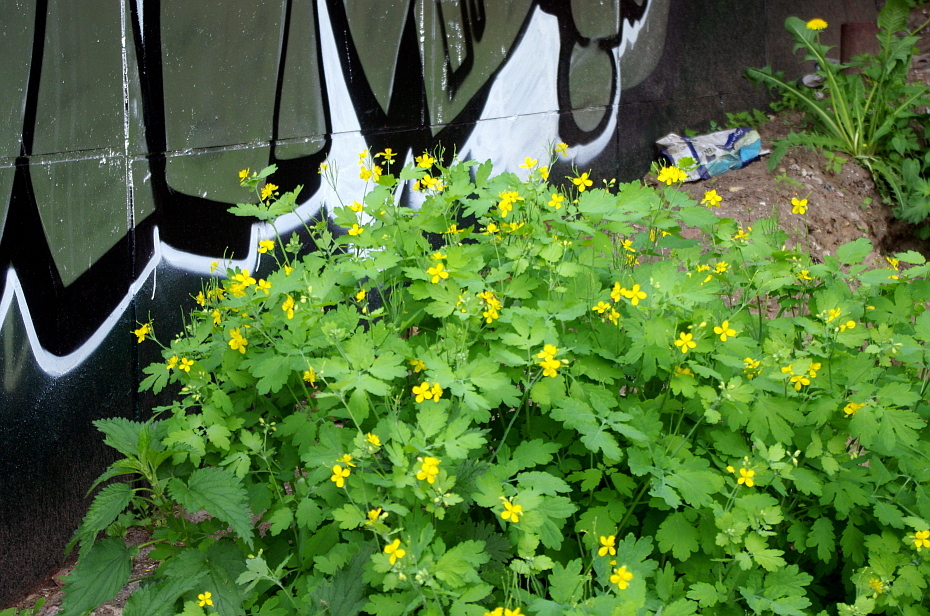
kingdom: Plantae
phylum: Tracheophyta
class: Magnoliopsida
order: Ranunculales
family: Papaveraceae
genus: Chelidonium
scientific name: Chelidonium majus
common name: Greater celandine
